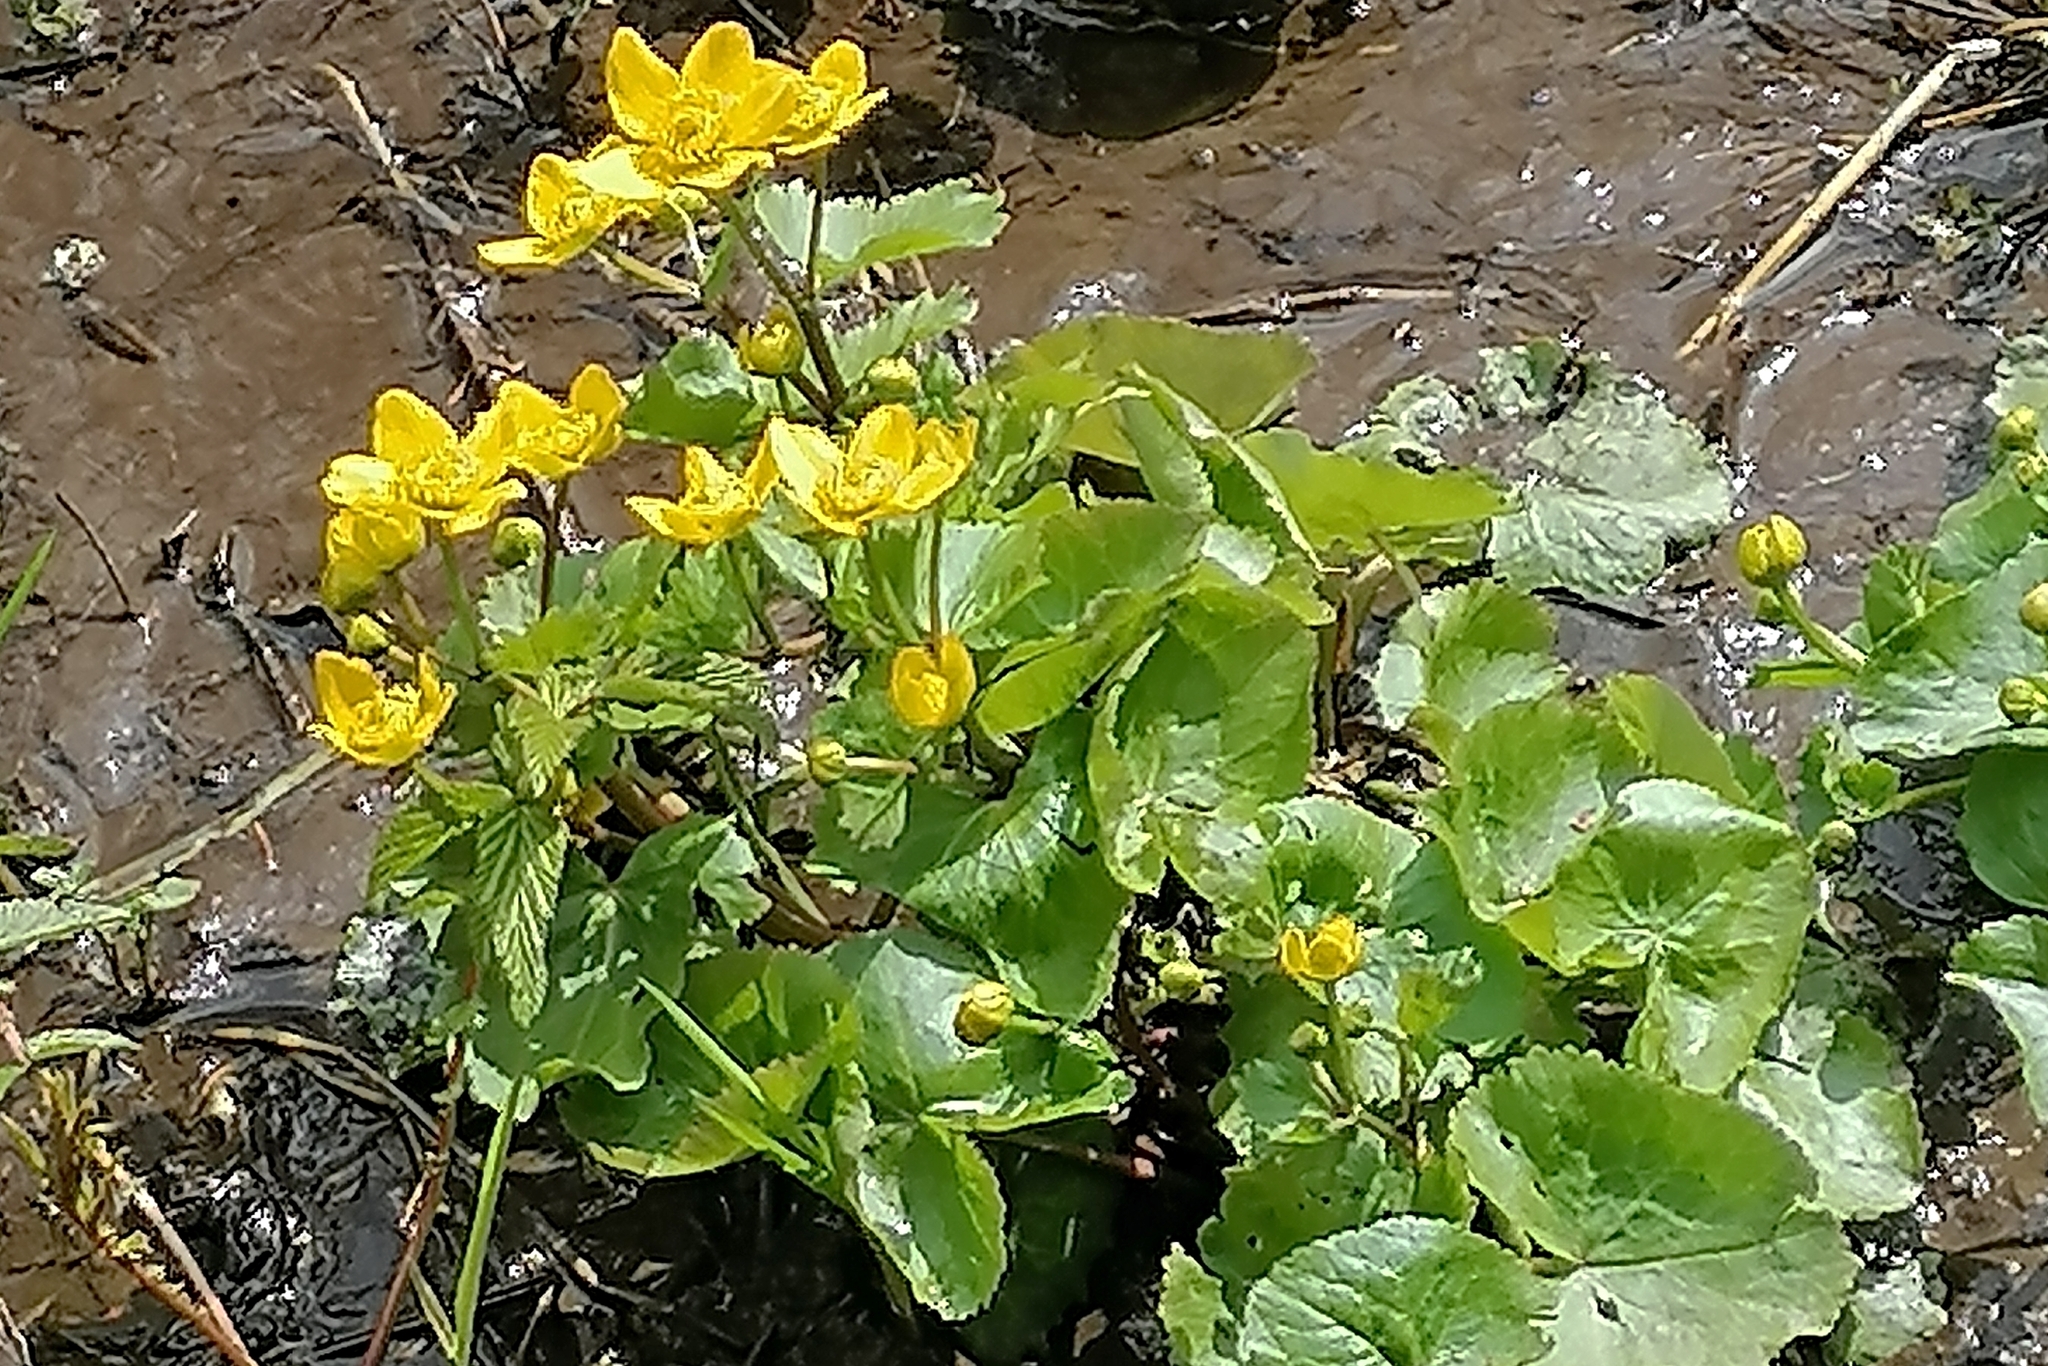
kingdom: Plantae
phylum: Tracheophyta
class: Magnoliopsida
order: Ranunculales
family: Ranunculaceae
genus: Caltha
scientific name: Caltha palustris
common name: Marsh marigold
